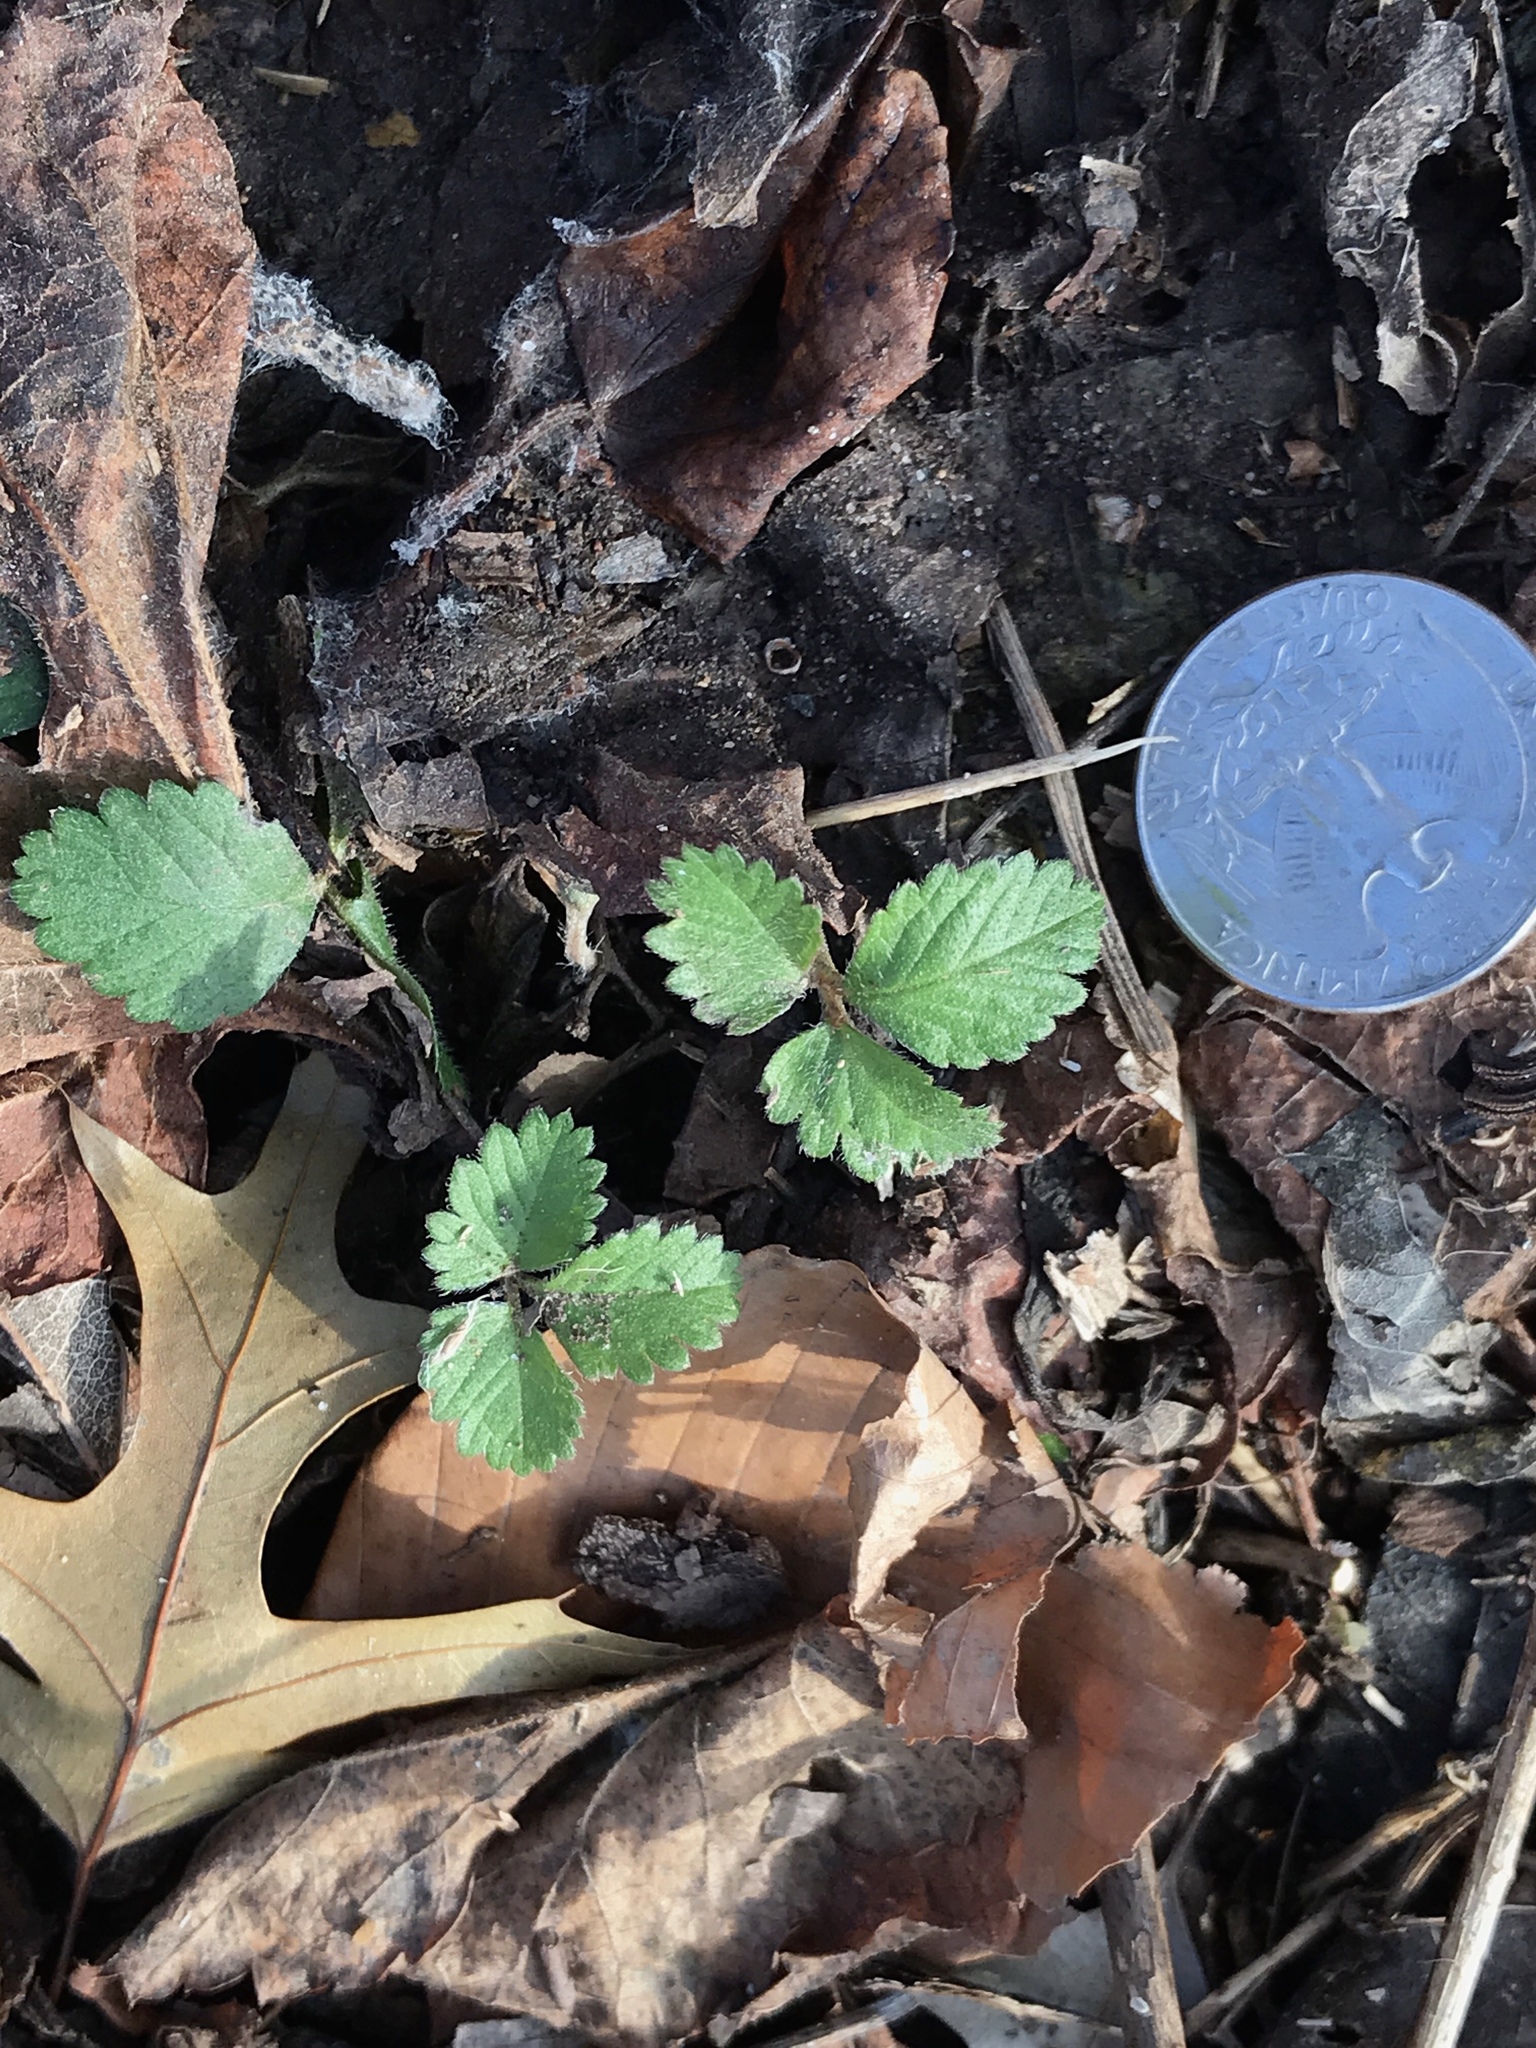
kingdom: Plantae
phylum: Tracheophyta
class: Magnoliopsida
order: Rosales
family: Rosaceae
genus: Potentilla
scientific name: Potentilla indica
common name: Yellow-flowered strawberry
